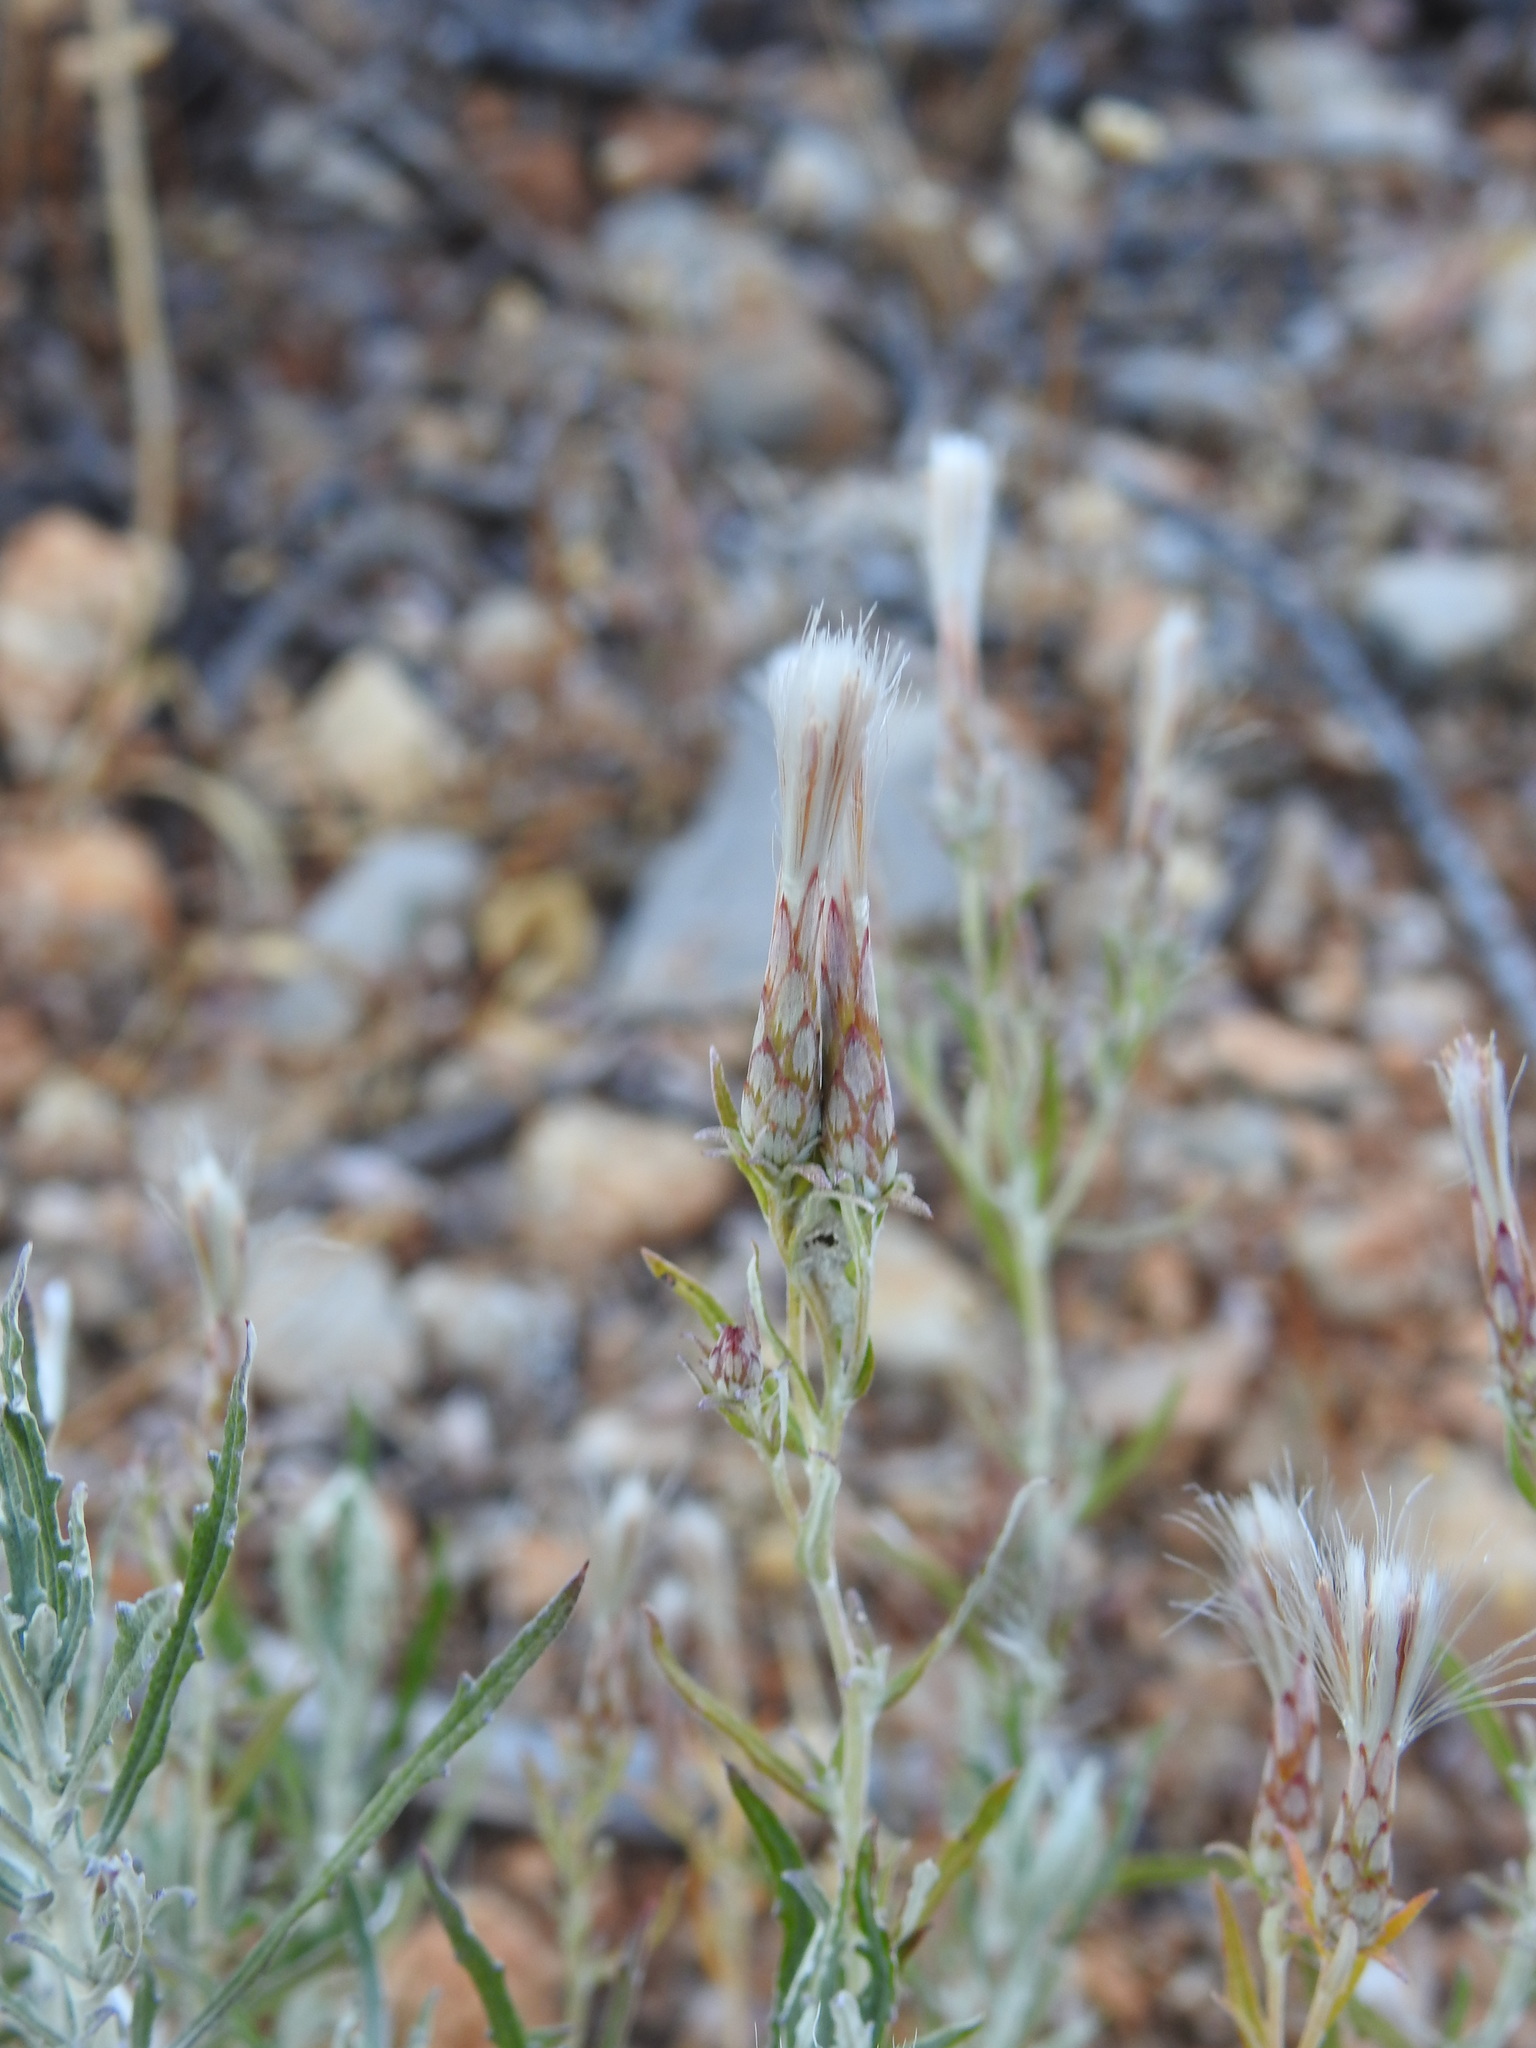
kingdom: Plantae
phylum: Tracheophyta
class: Magnoliopsida
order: Asterales
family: Asteraceae
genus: Staehelina
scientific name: Staehelina dubia
